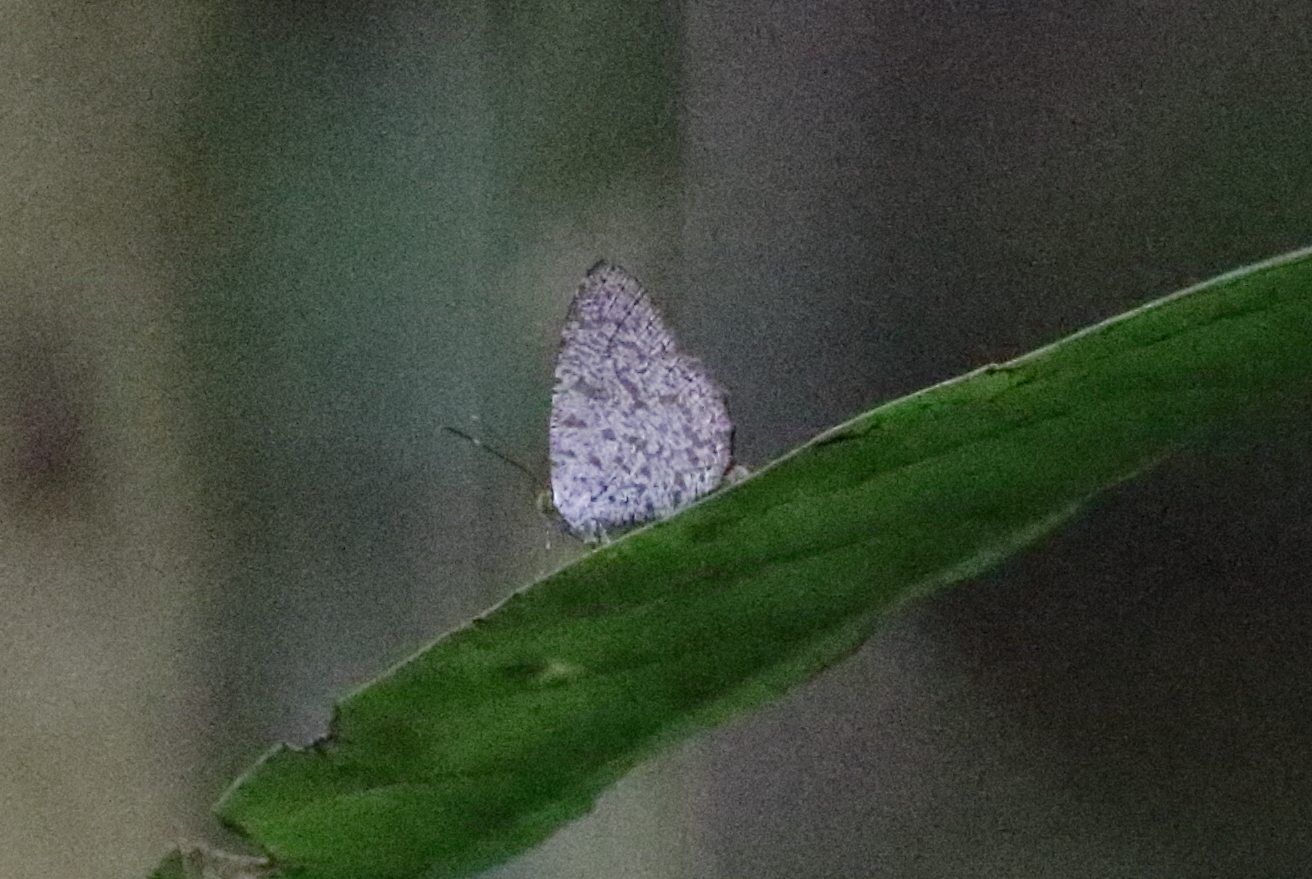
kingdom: Animalia
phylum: Arthropoda
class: Insecta
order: Lepidoptera
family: Lycaenidae
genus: Allotinus
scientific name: Allotinus leogoron
